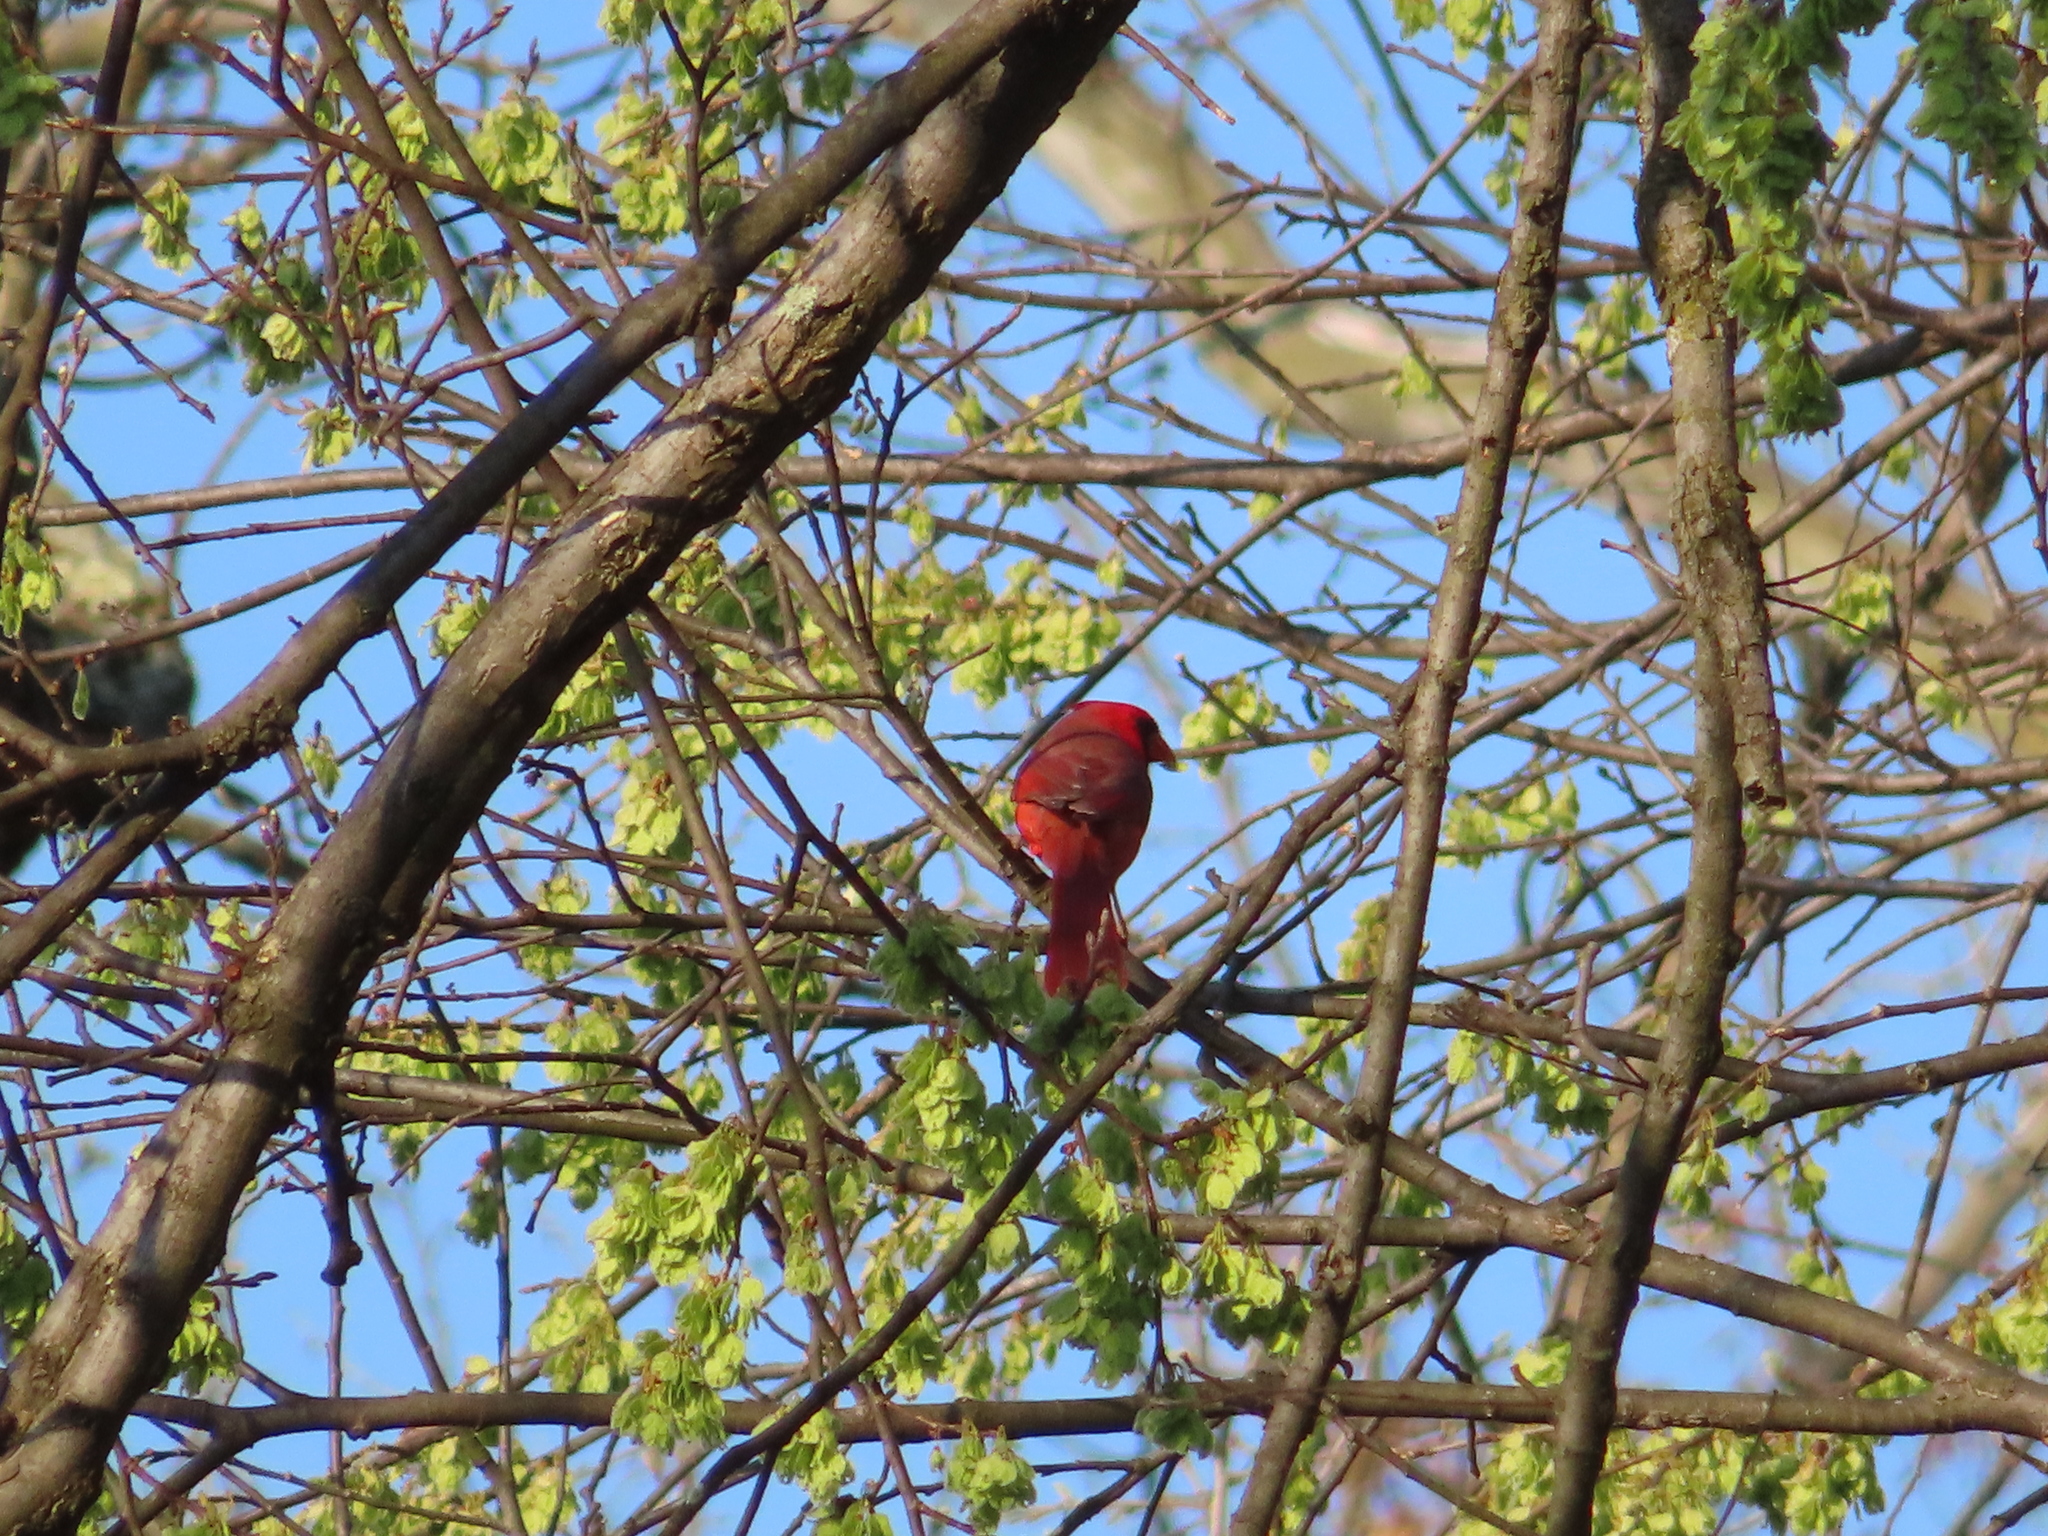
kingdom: Animalia
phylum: Chordata
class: Aves
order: Passeriformes
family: Cardinalidae
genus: Cardinalis
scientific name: Cardinalis cardinalis
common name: Northern cardinal
